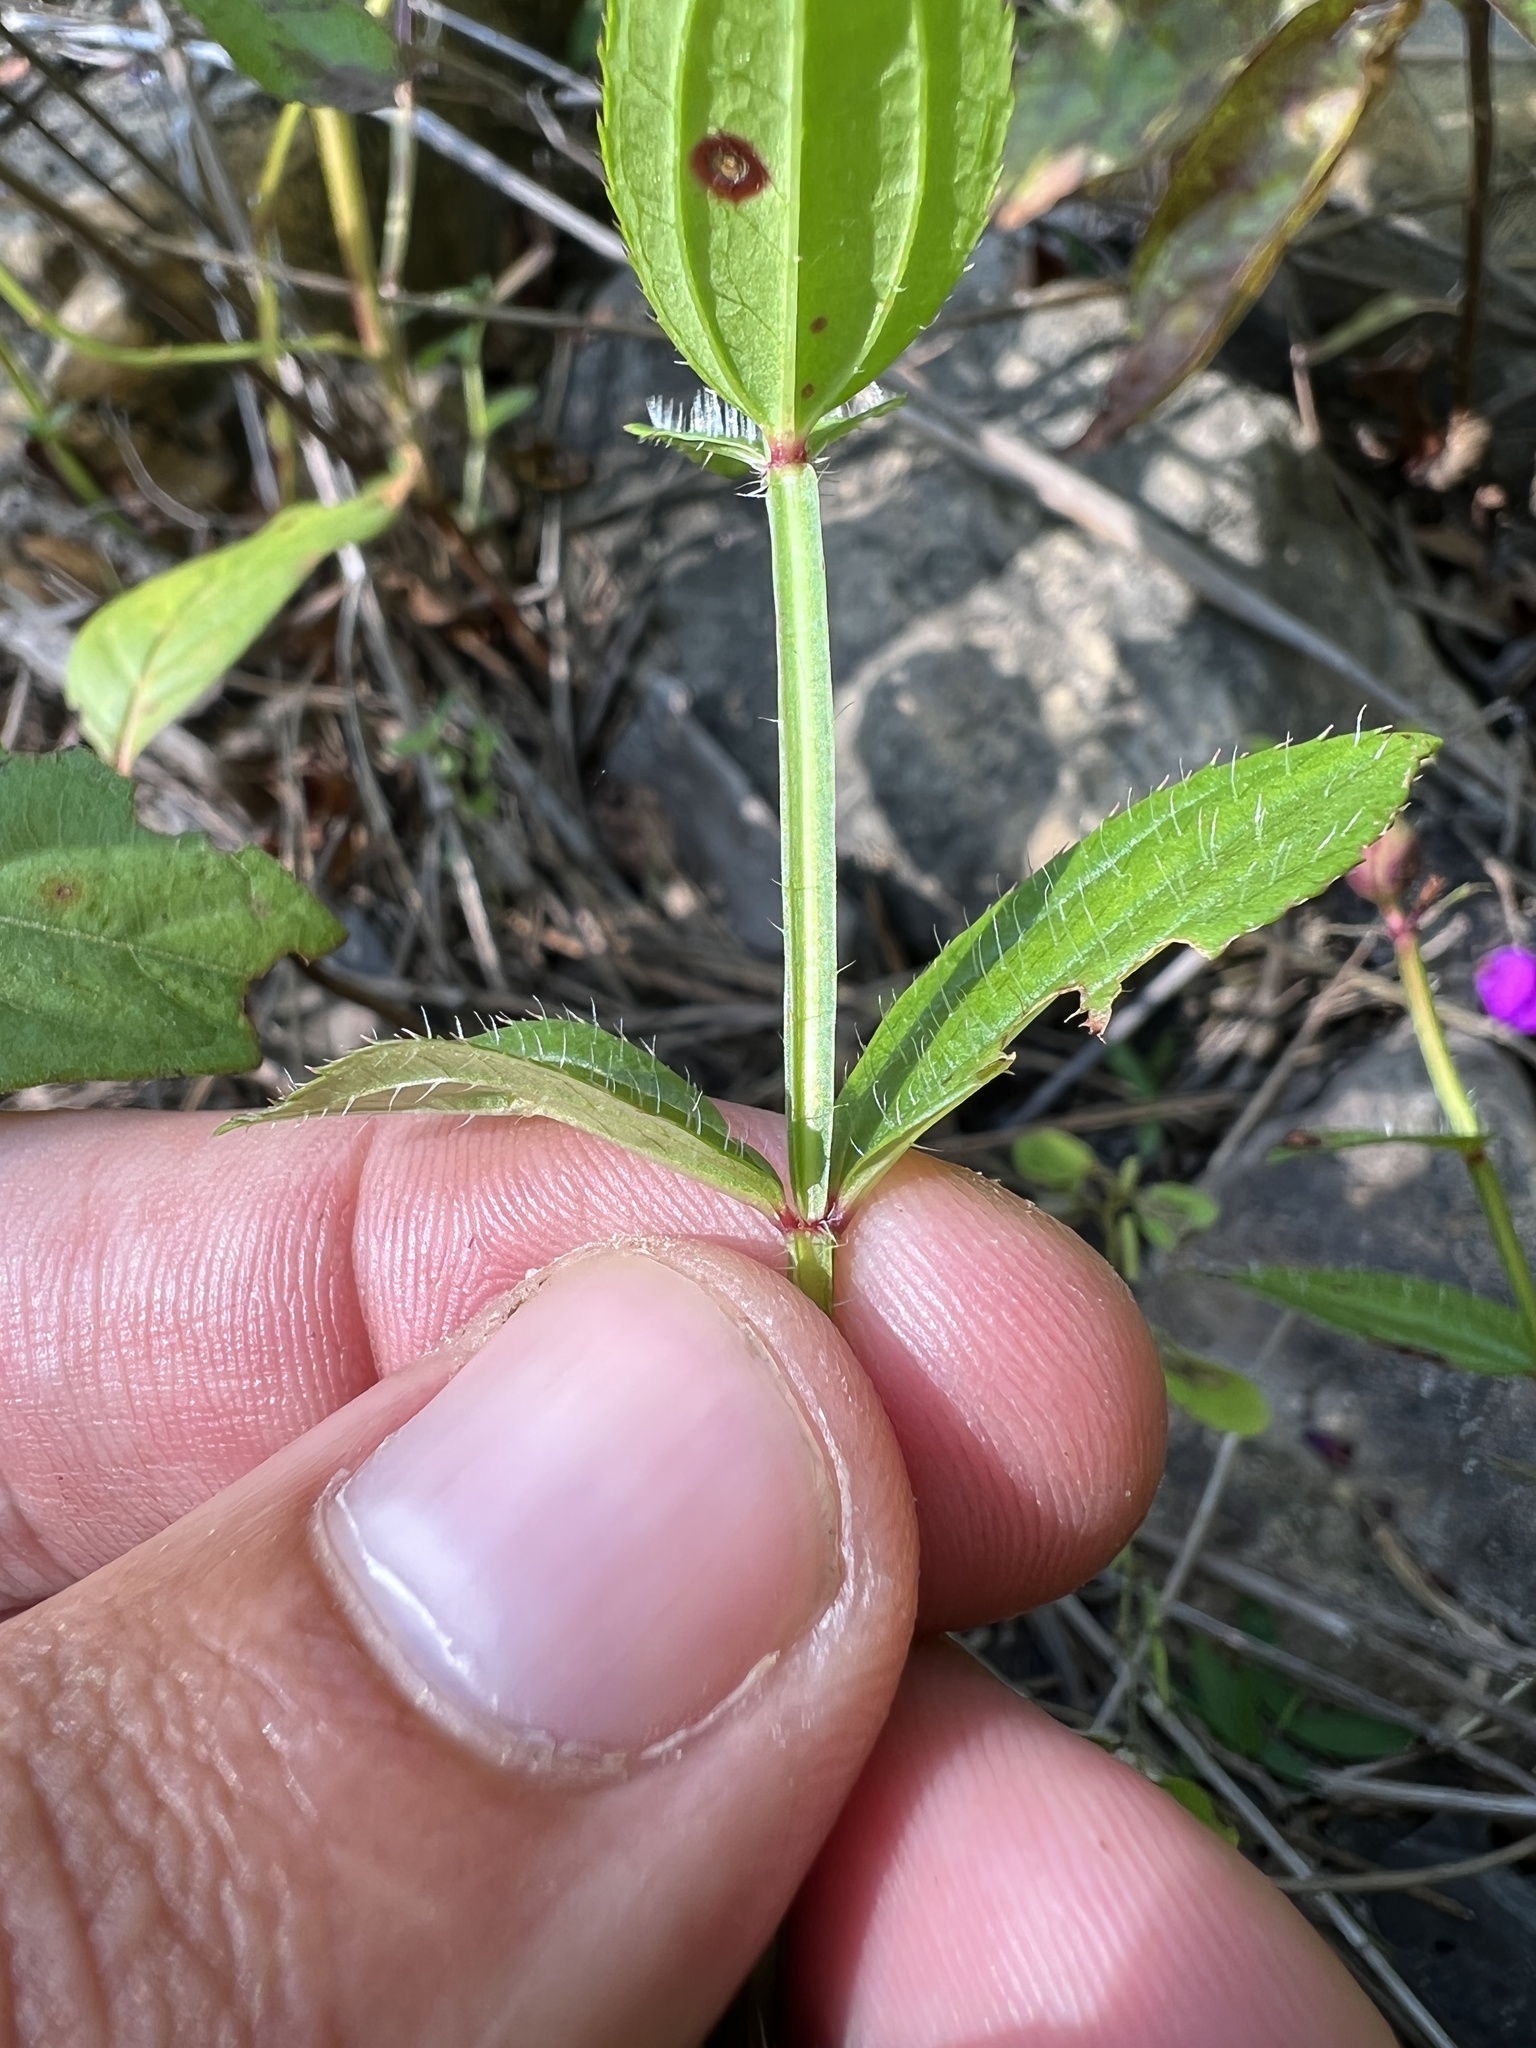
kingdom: Plantae
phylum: Tracheophyta
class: Magnoliopsida
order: Myrtales
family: Melastomataceae
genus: Rhexia
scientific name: Rhexia virginica
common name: Common meadow beauty
